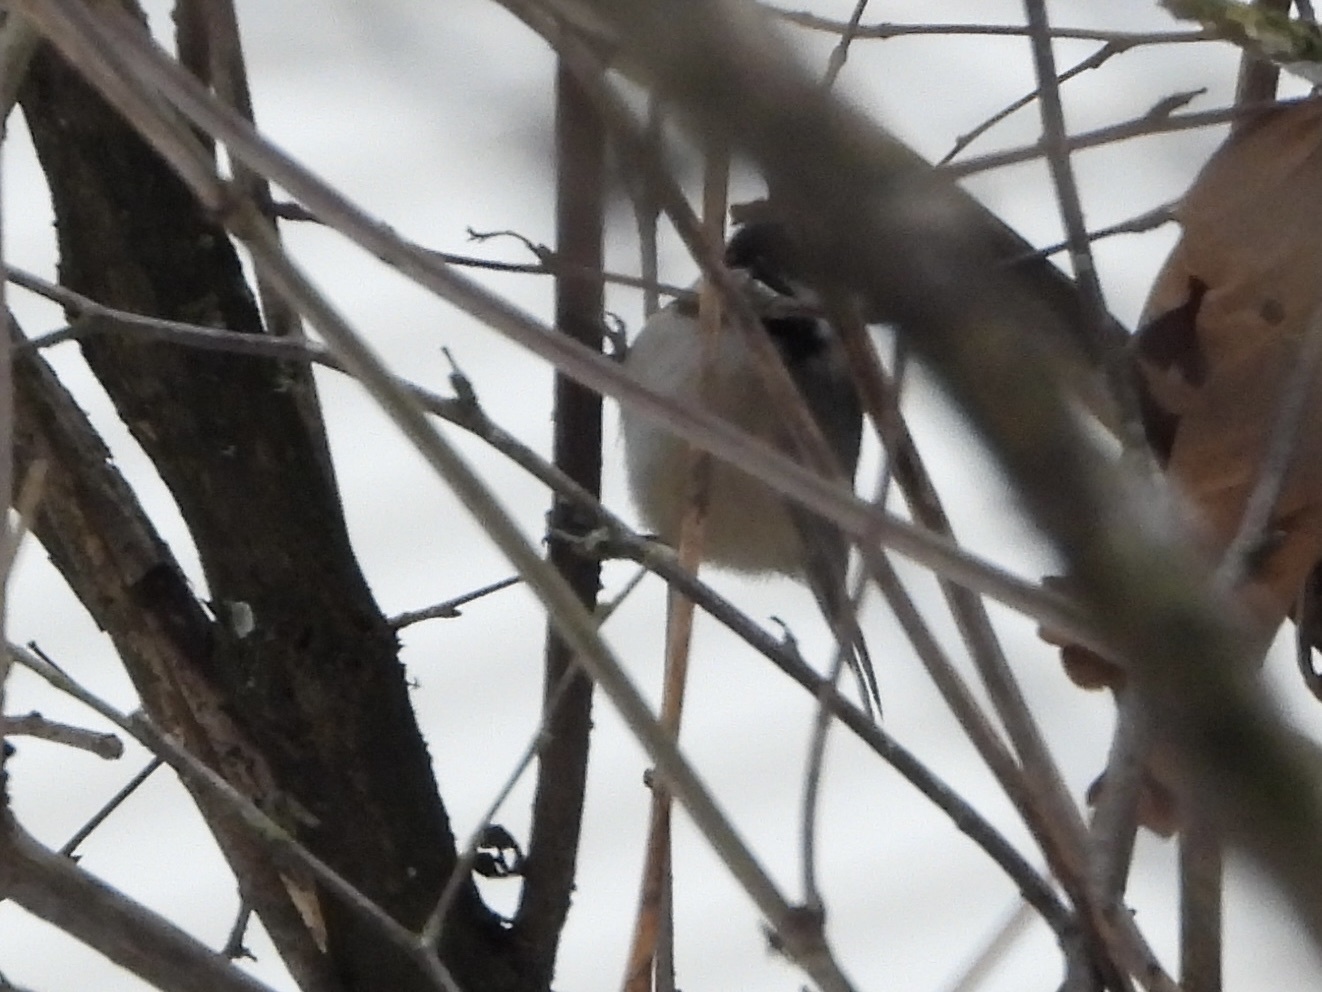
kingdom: Animalia
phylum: Chordata
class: Aves
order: Passeriformes
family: Paridae
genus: Poecile
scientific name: Poecile atricapillus
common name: Black-capped chickadee
